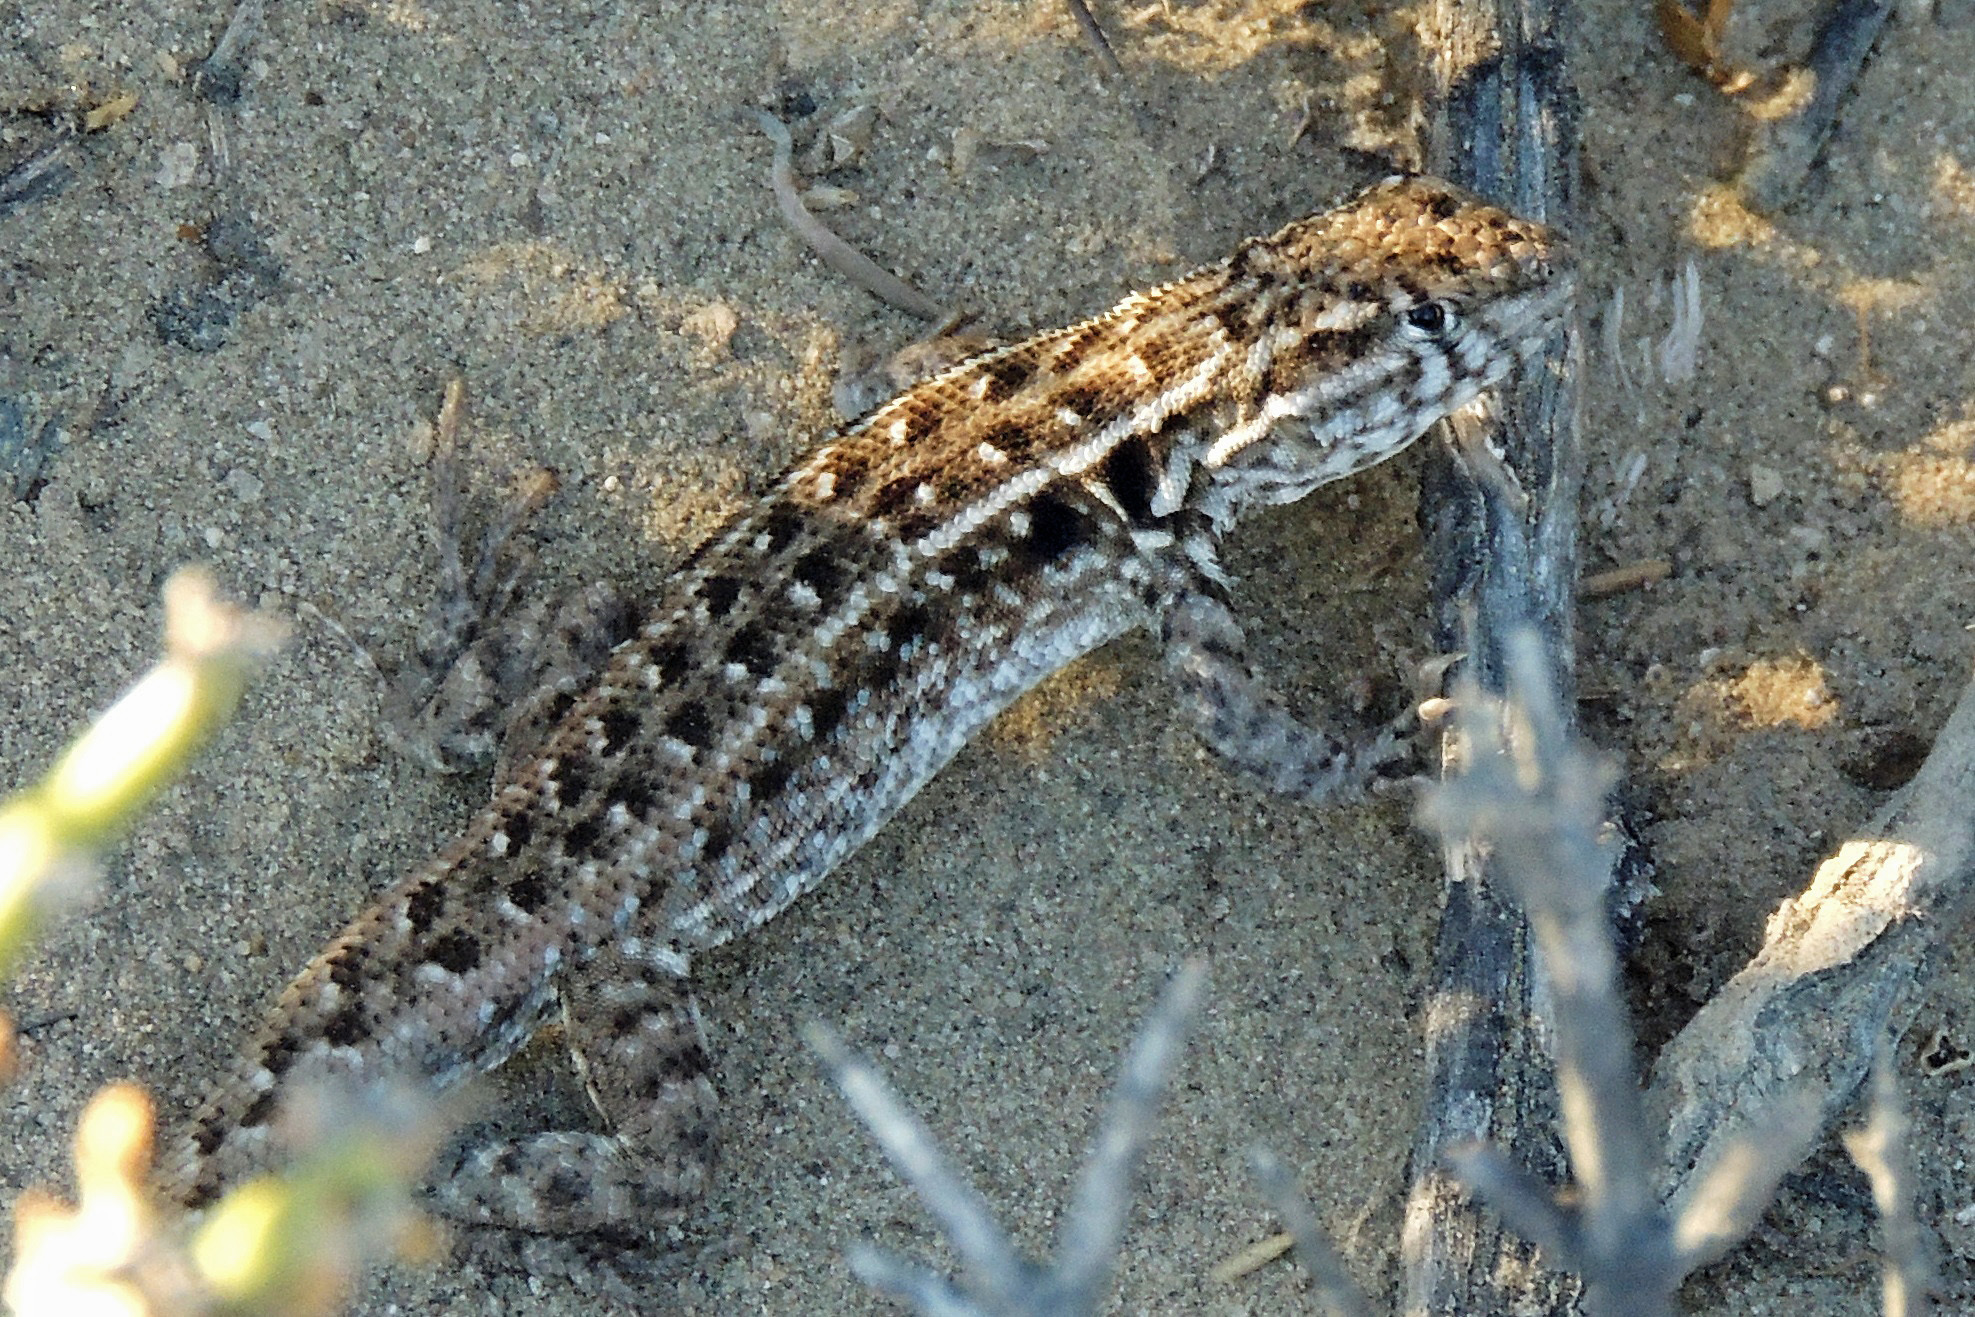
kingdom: Animalia
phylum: Chordata
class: Squamata
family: Liolaemidae
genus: Liolaemus
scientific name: Liolaemus darwinii
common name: Darwin's tree iguana
